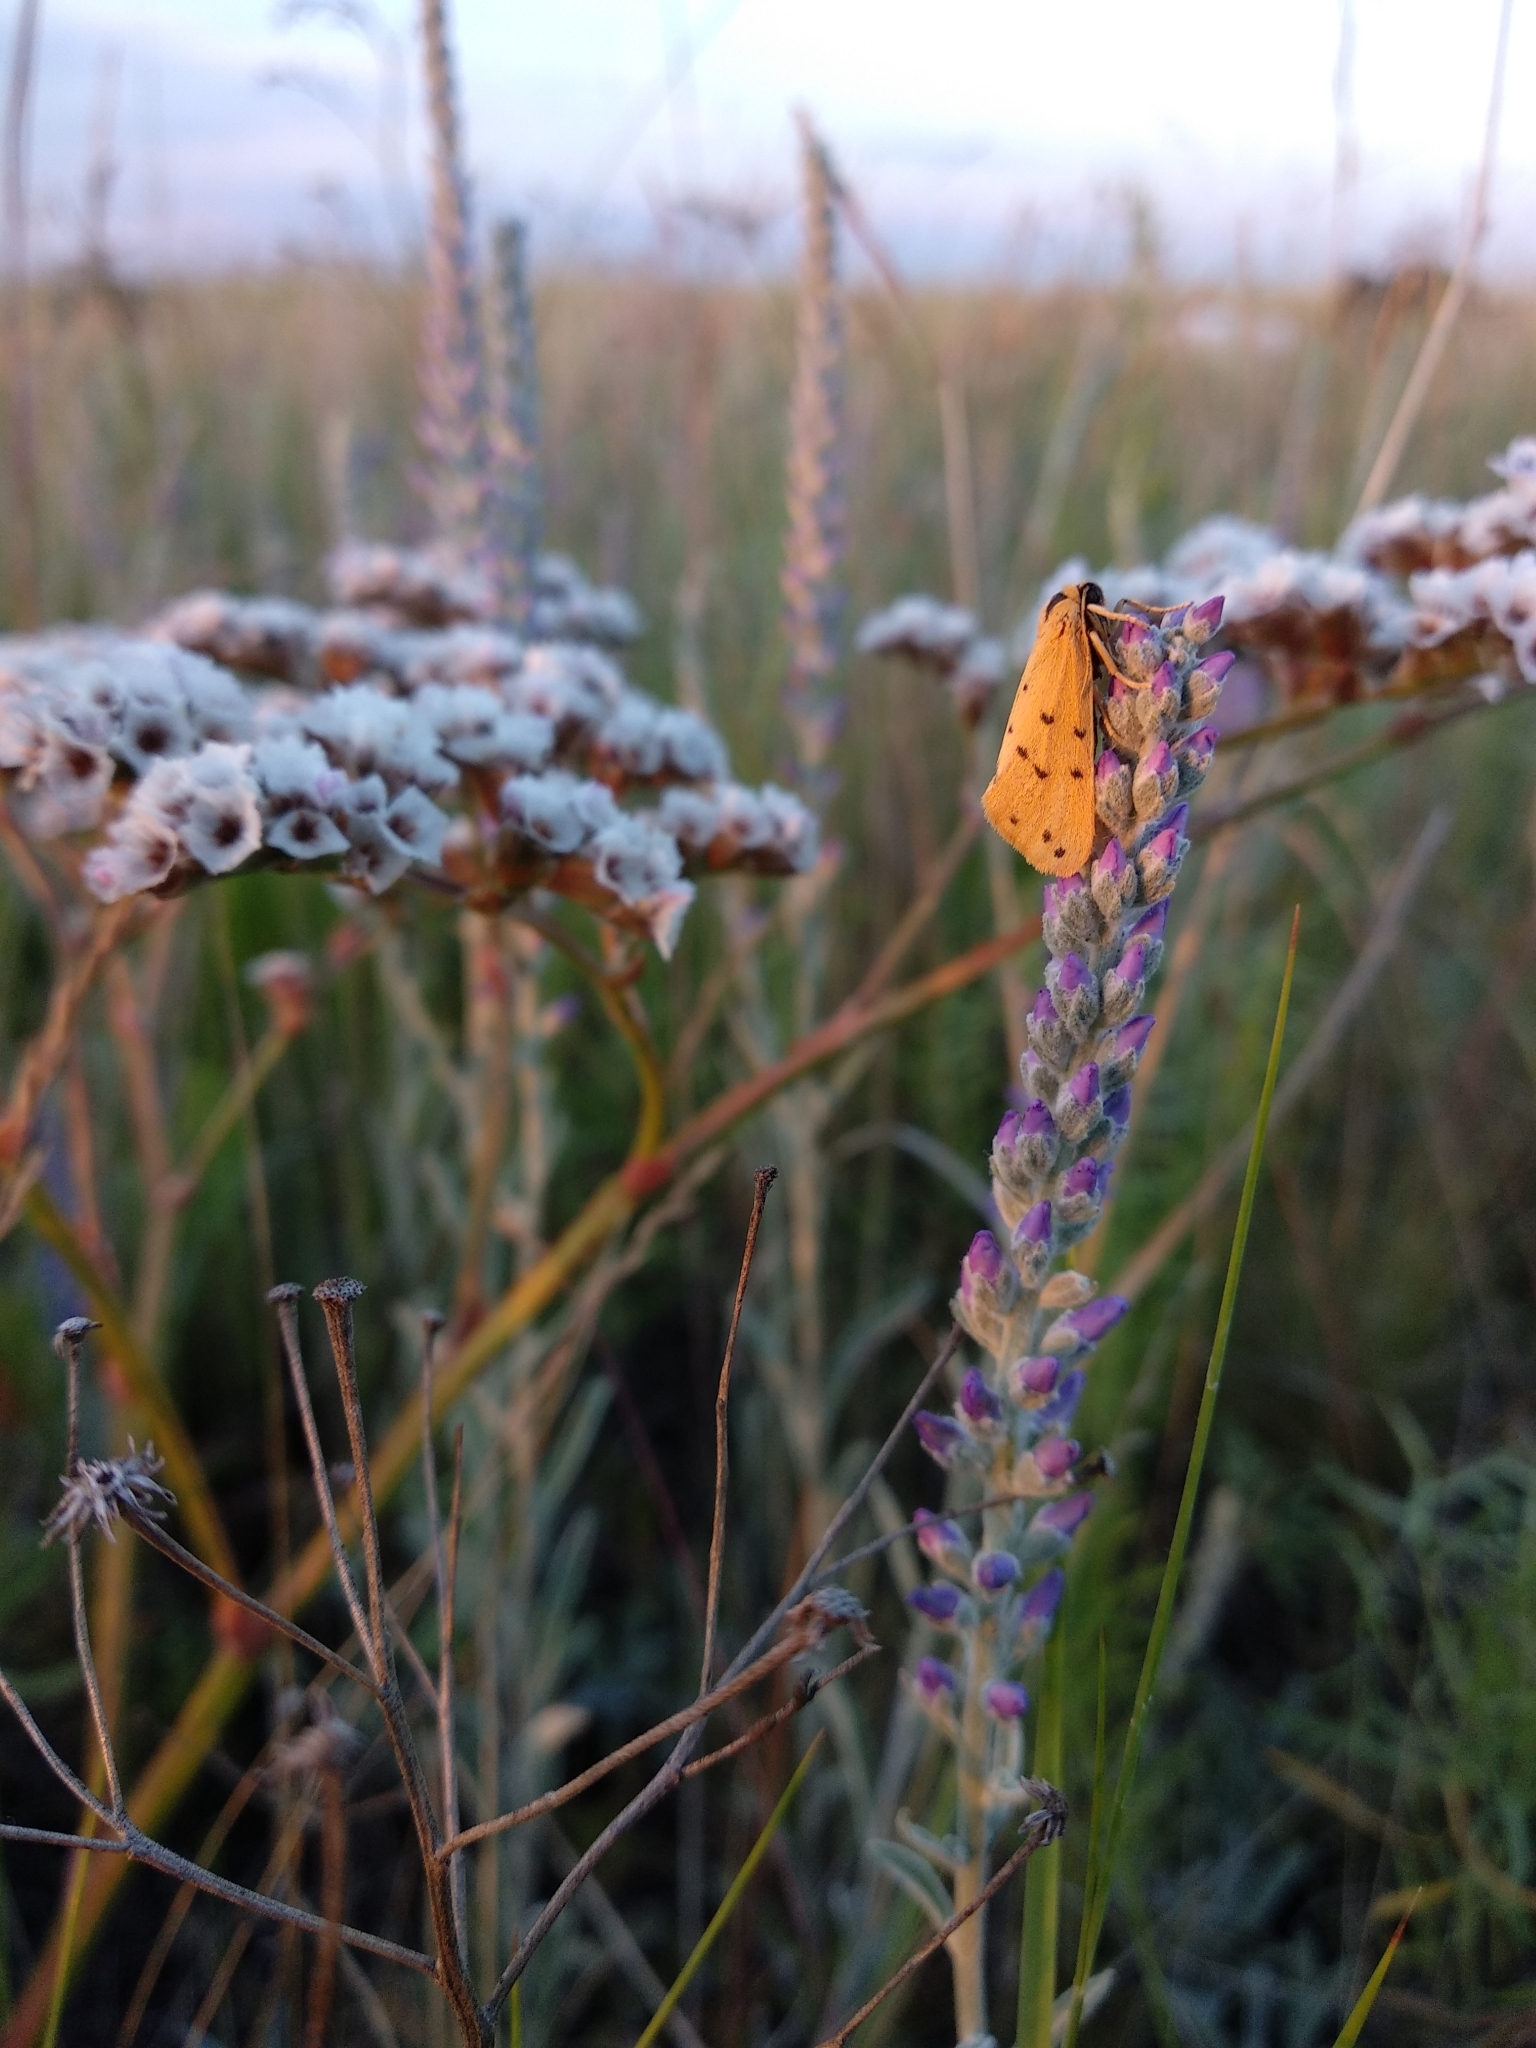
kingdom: Animalia
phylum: Arthropoda
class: Insecta
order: Lepidoptera
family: Erebidae
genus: Setina
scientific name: Setina roscida
